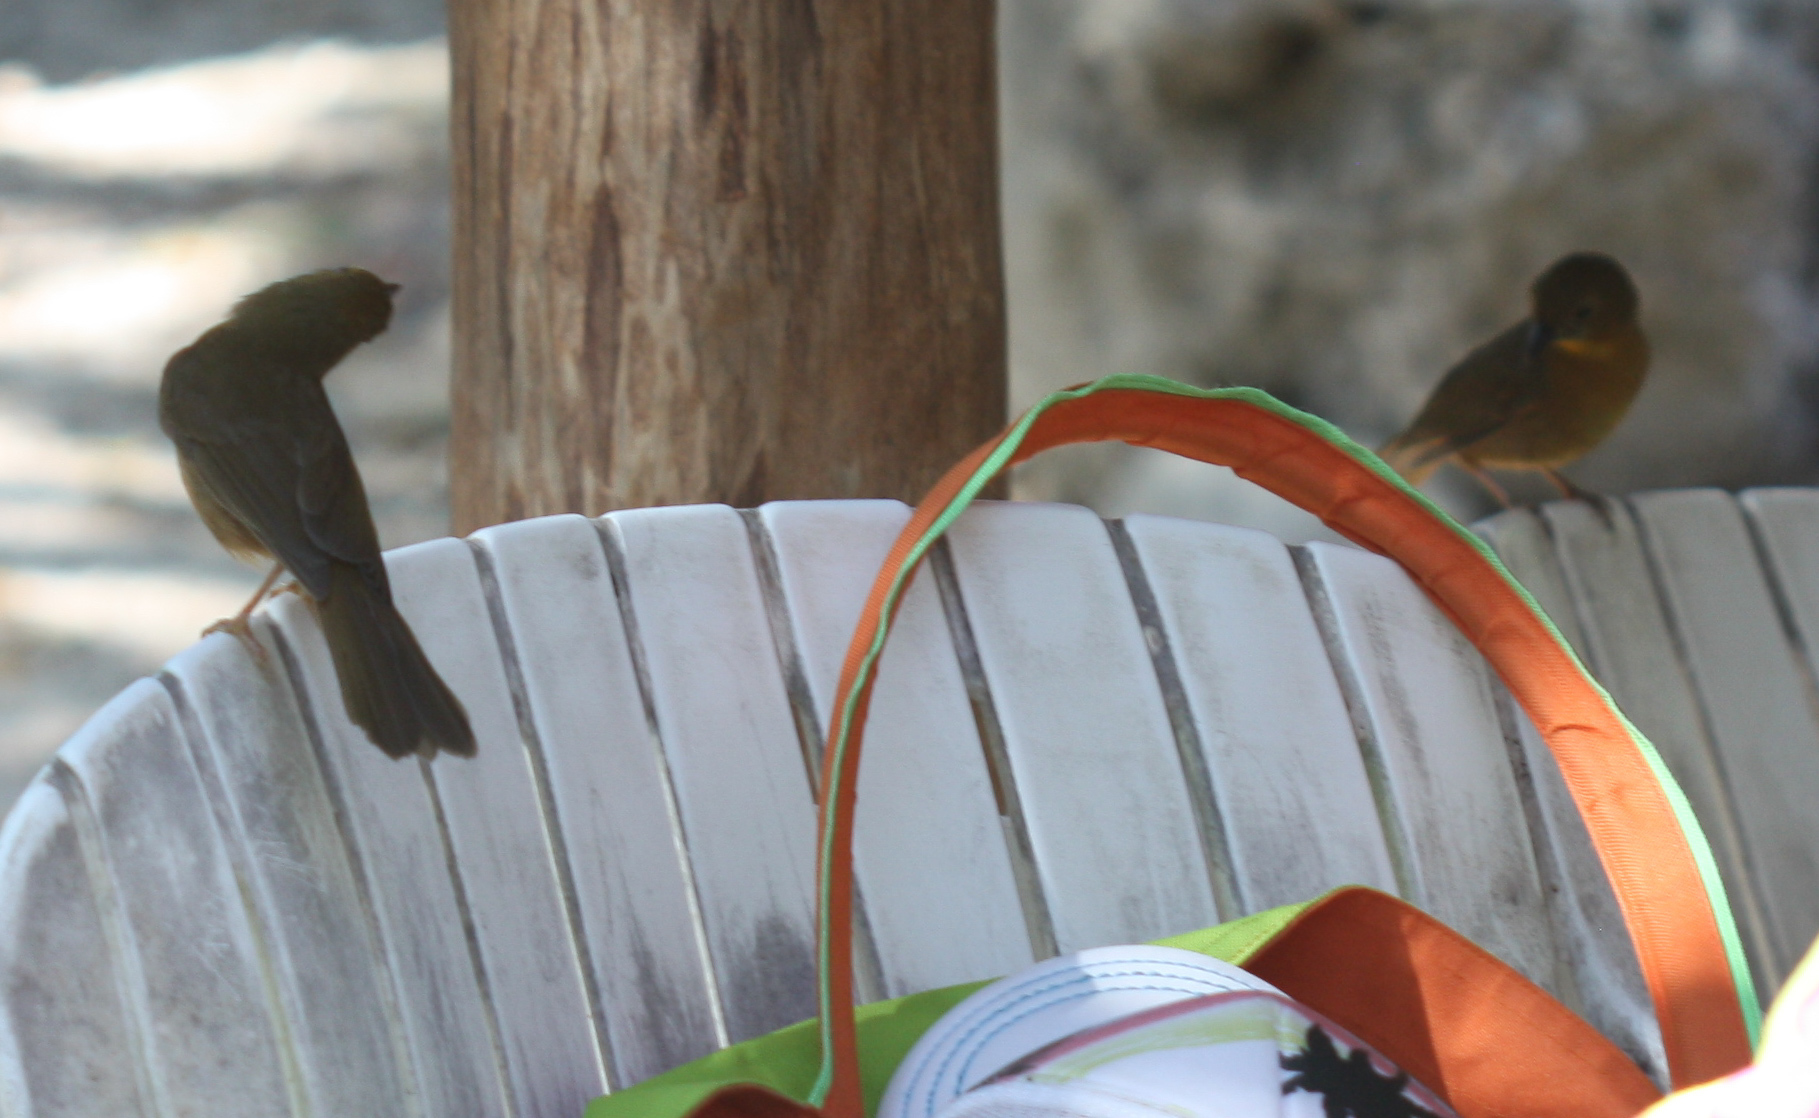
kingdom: Animalia
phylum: Chordata
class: Aves
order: Passeriformes
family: Cardinalidae
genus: Habia
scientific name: Habia fuscicauda
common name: Red-throated ant-tanager
